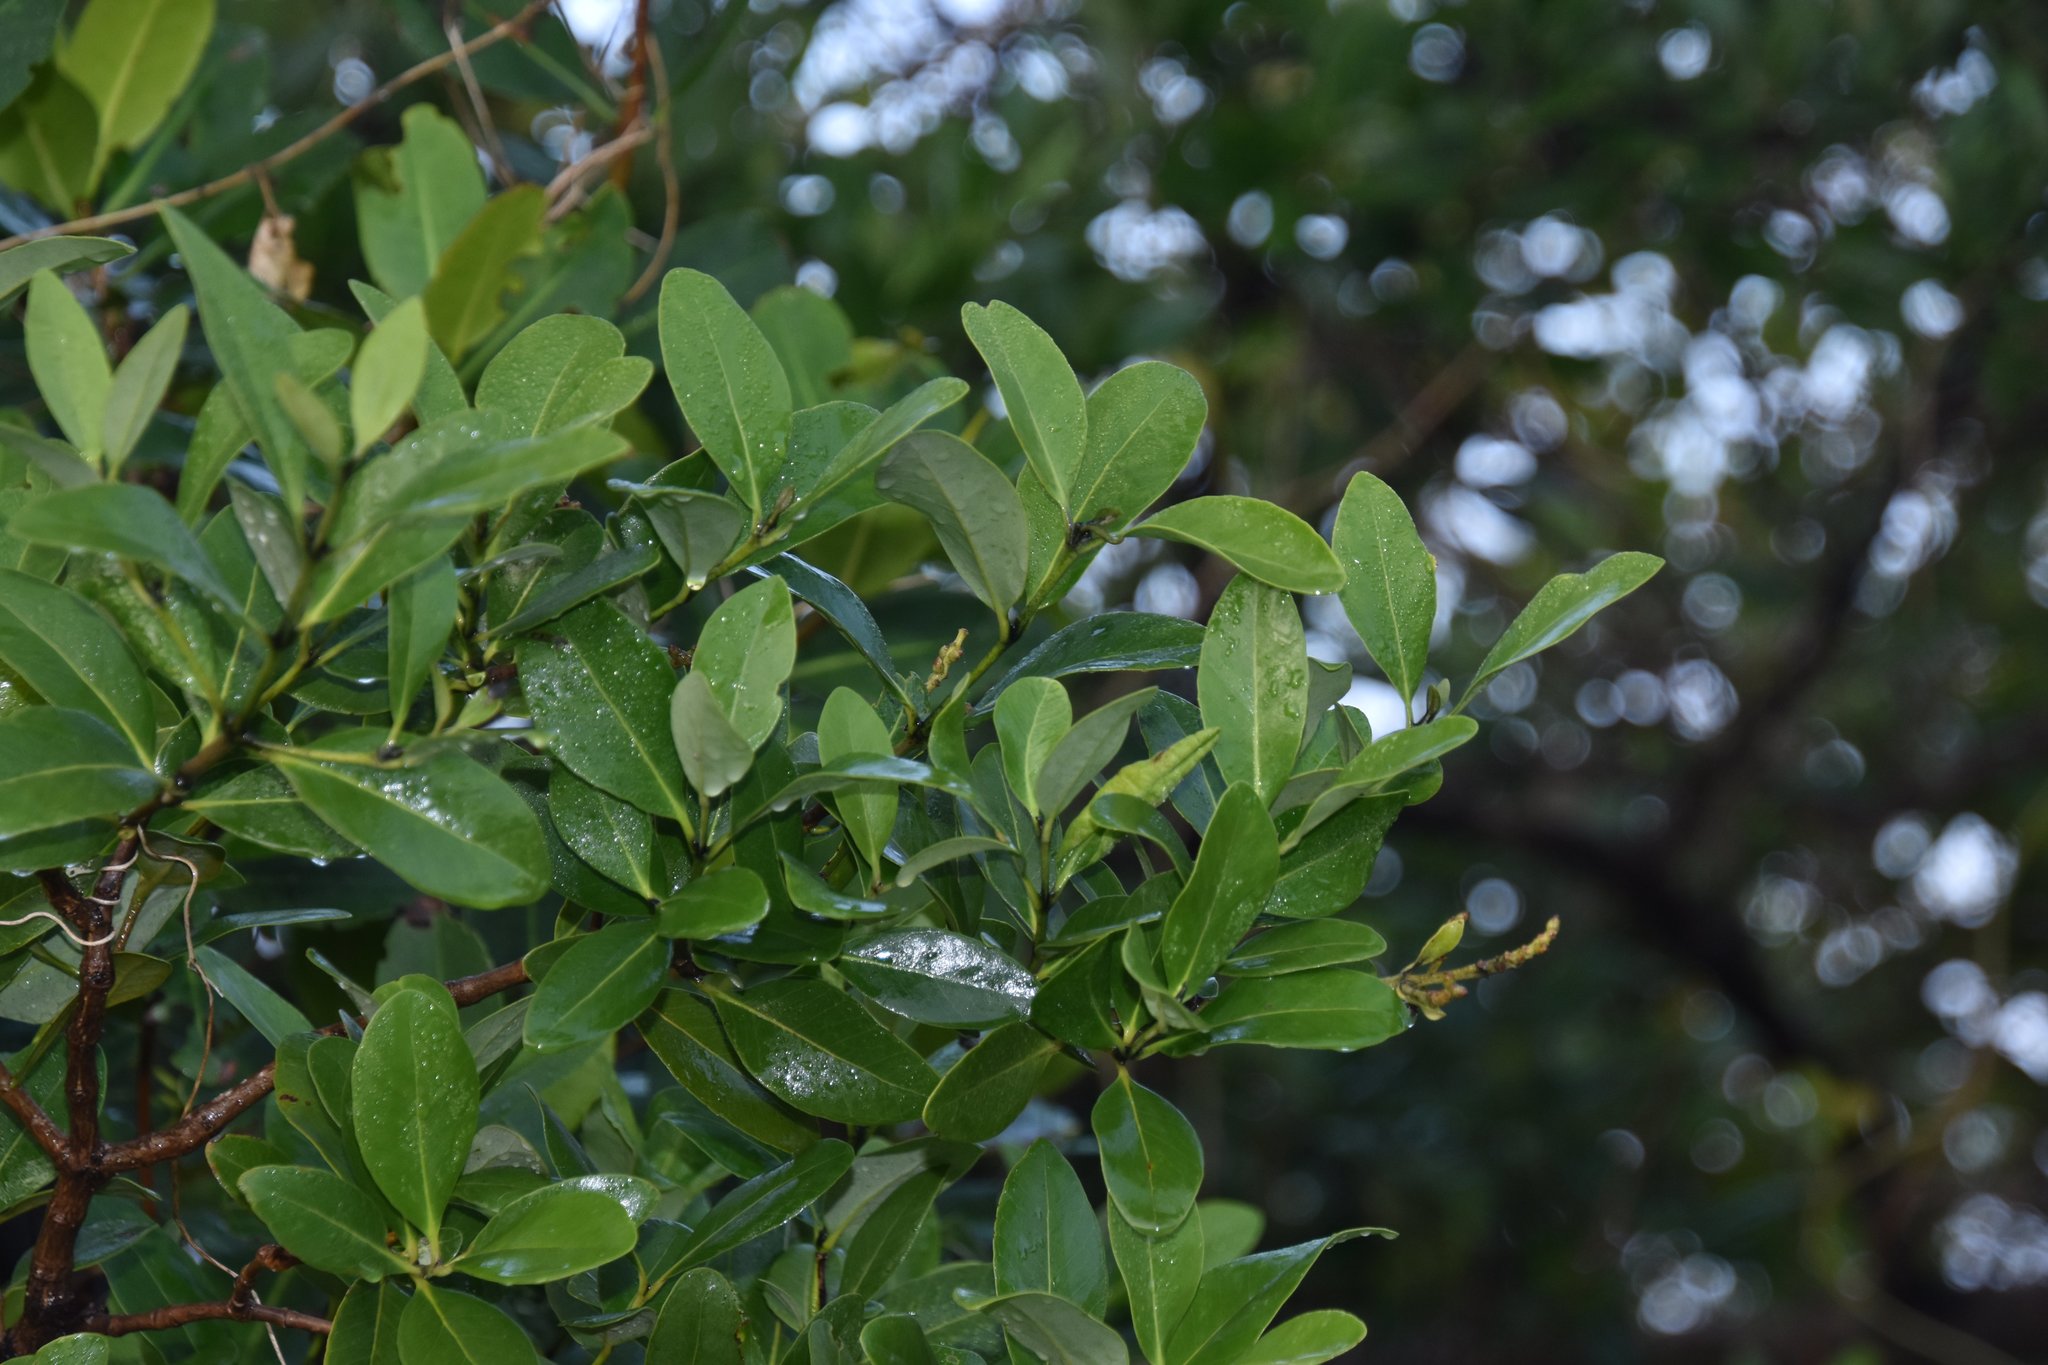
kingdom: Plantae
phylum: Tracheophyta
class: Magnoliopsida
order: Lamiales
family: Acanthaceae
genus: Avicennia
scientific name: Avicennia germinans
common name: Black mangrove
